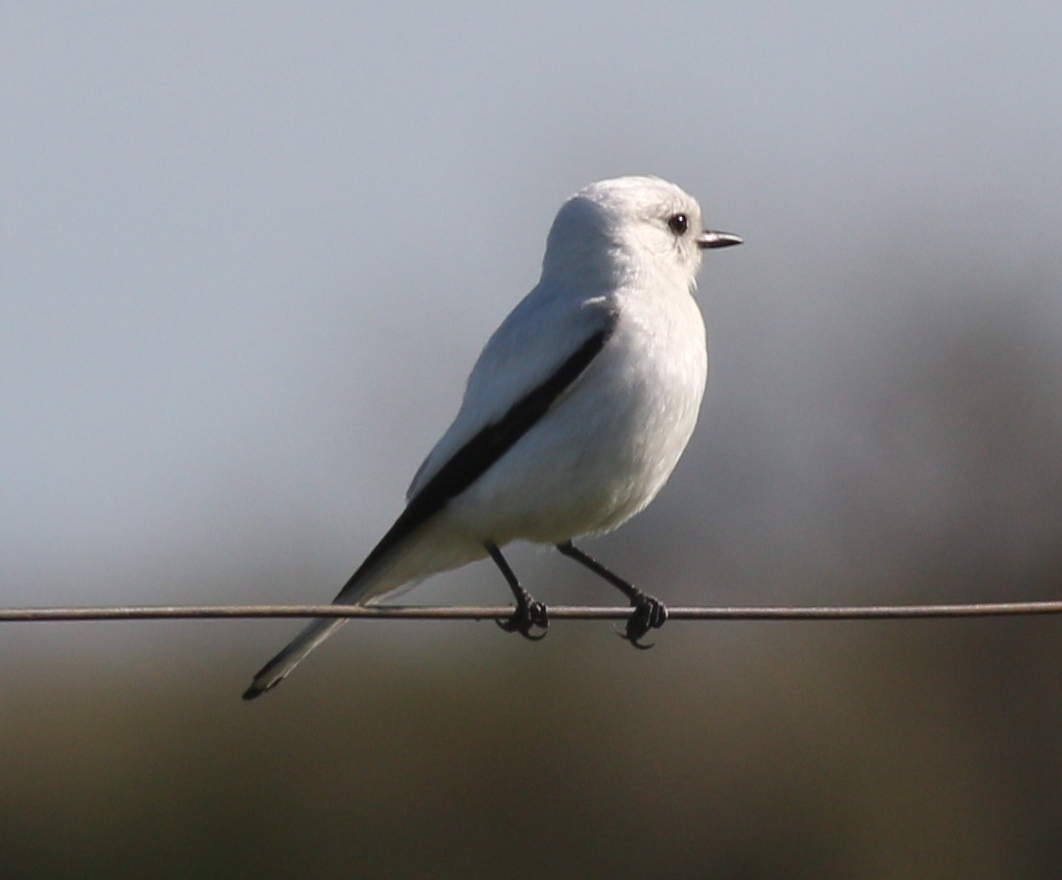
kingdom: Animalia
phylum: Chordata
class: Aves
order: Passeriformes
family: Tyrannidae
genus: Xolmis
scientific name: Xolmis irupero
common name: White monjita
